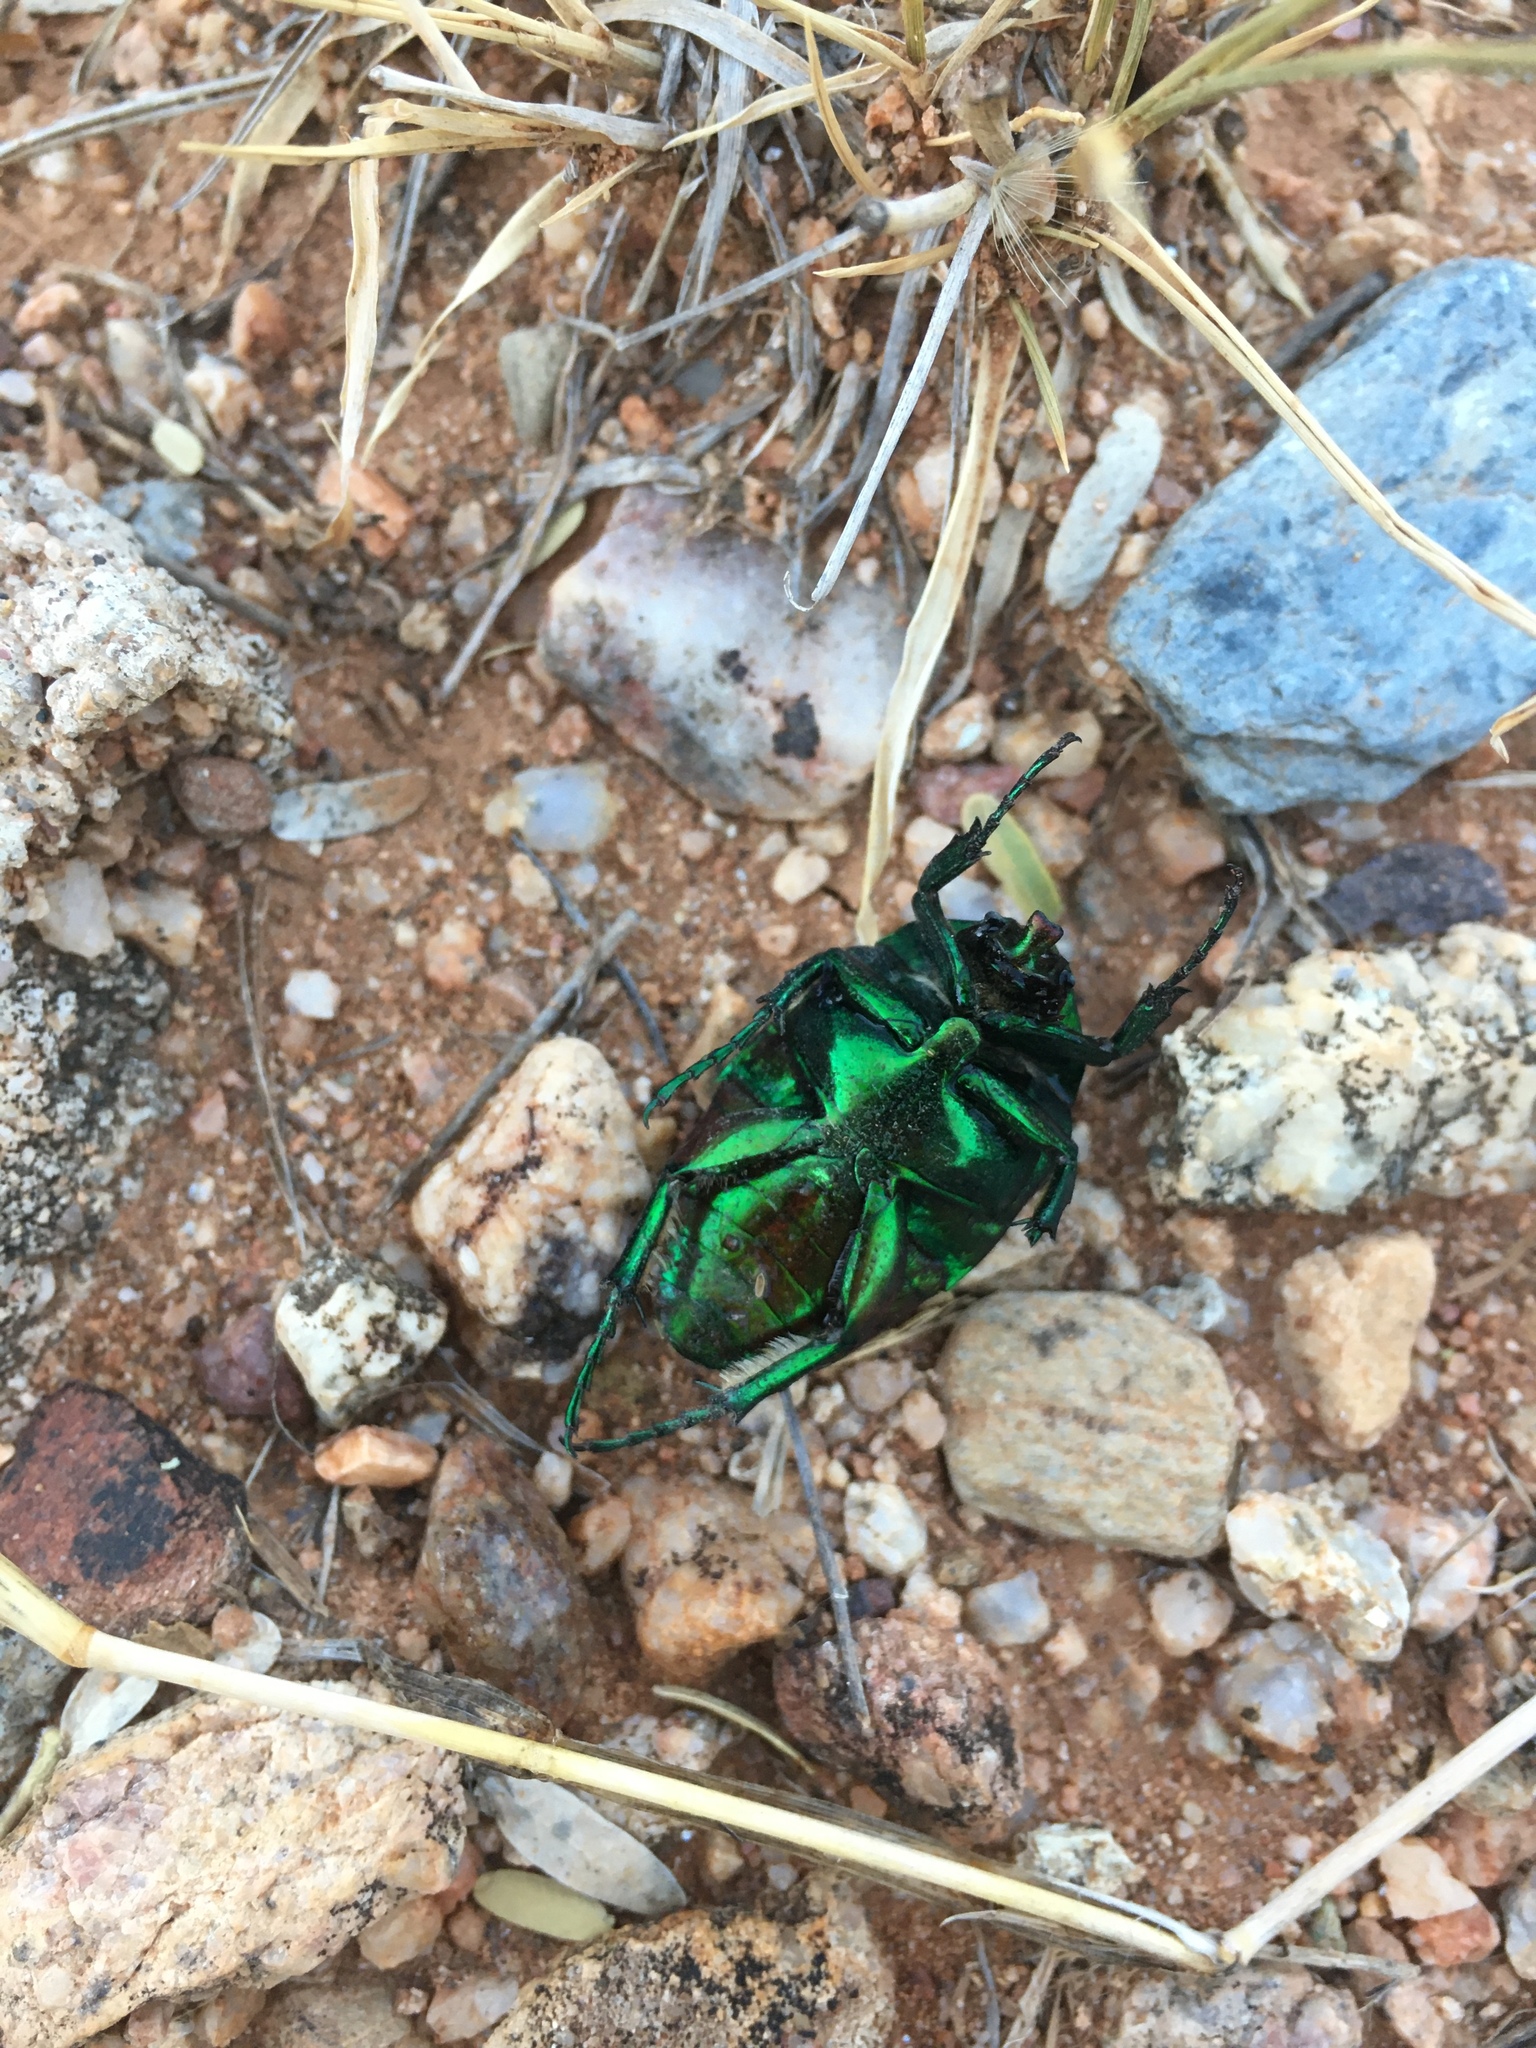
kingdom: Animalia
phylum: Arthropoda
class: Insecta
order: Coleoptera
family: Scarabaeidae
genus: Cotinis
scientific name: Cotinis mutabilis
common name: Figeater beetle
